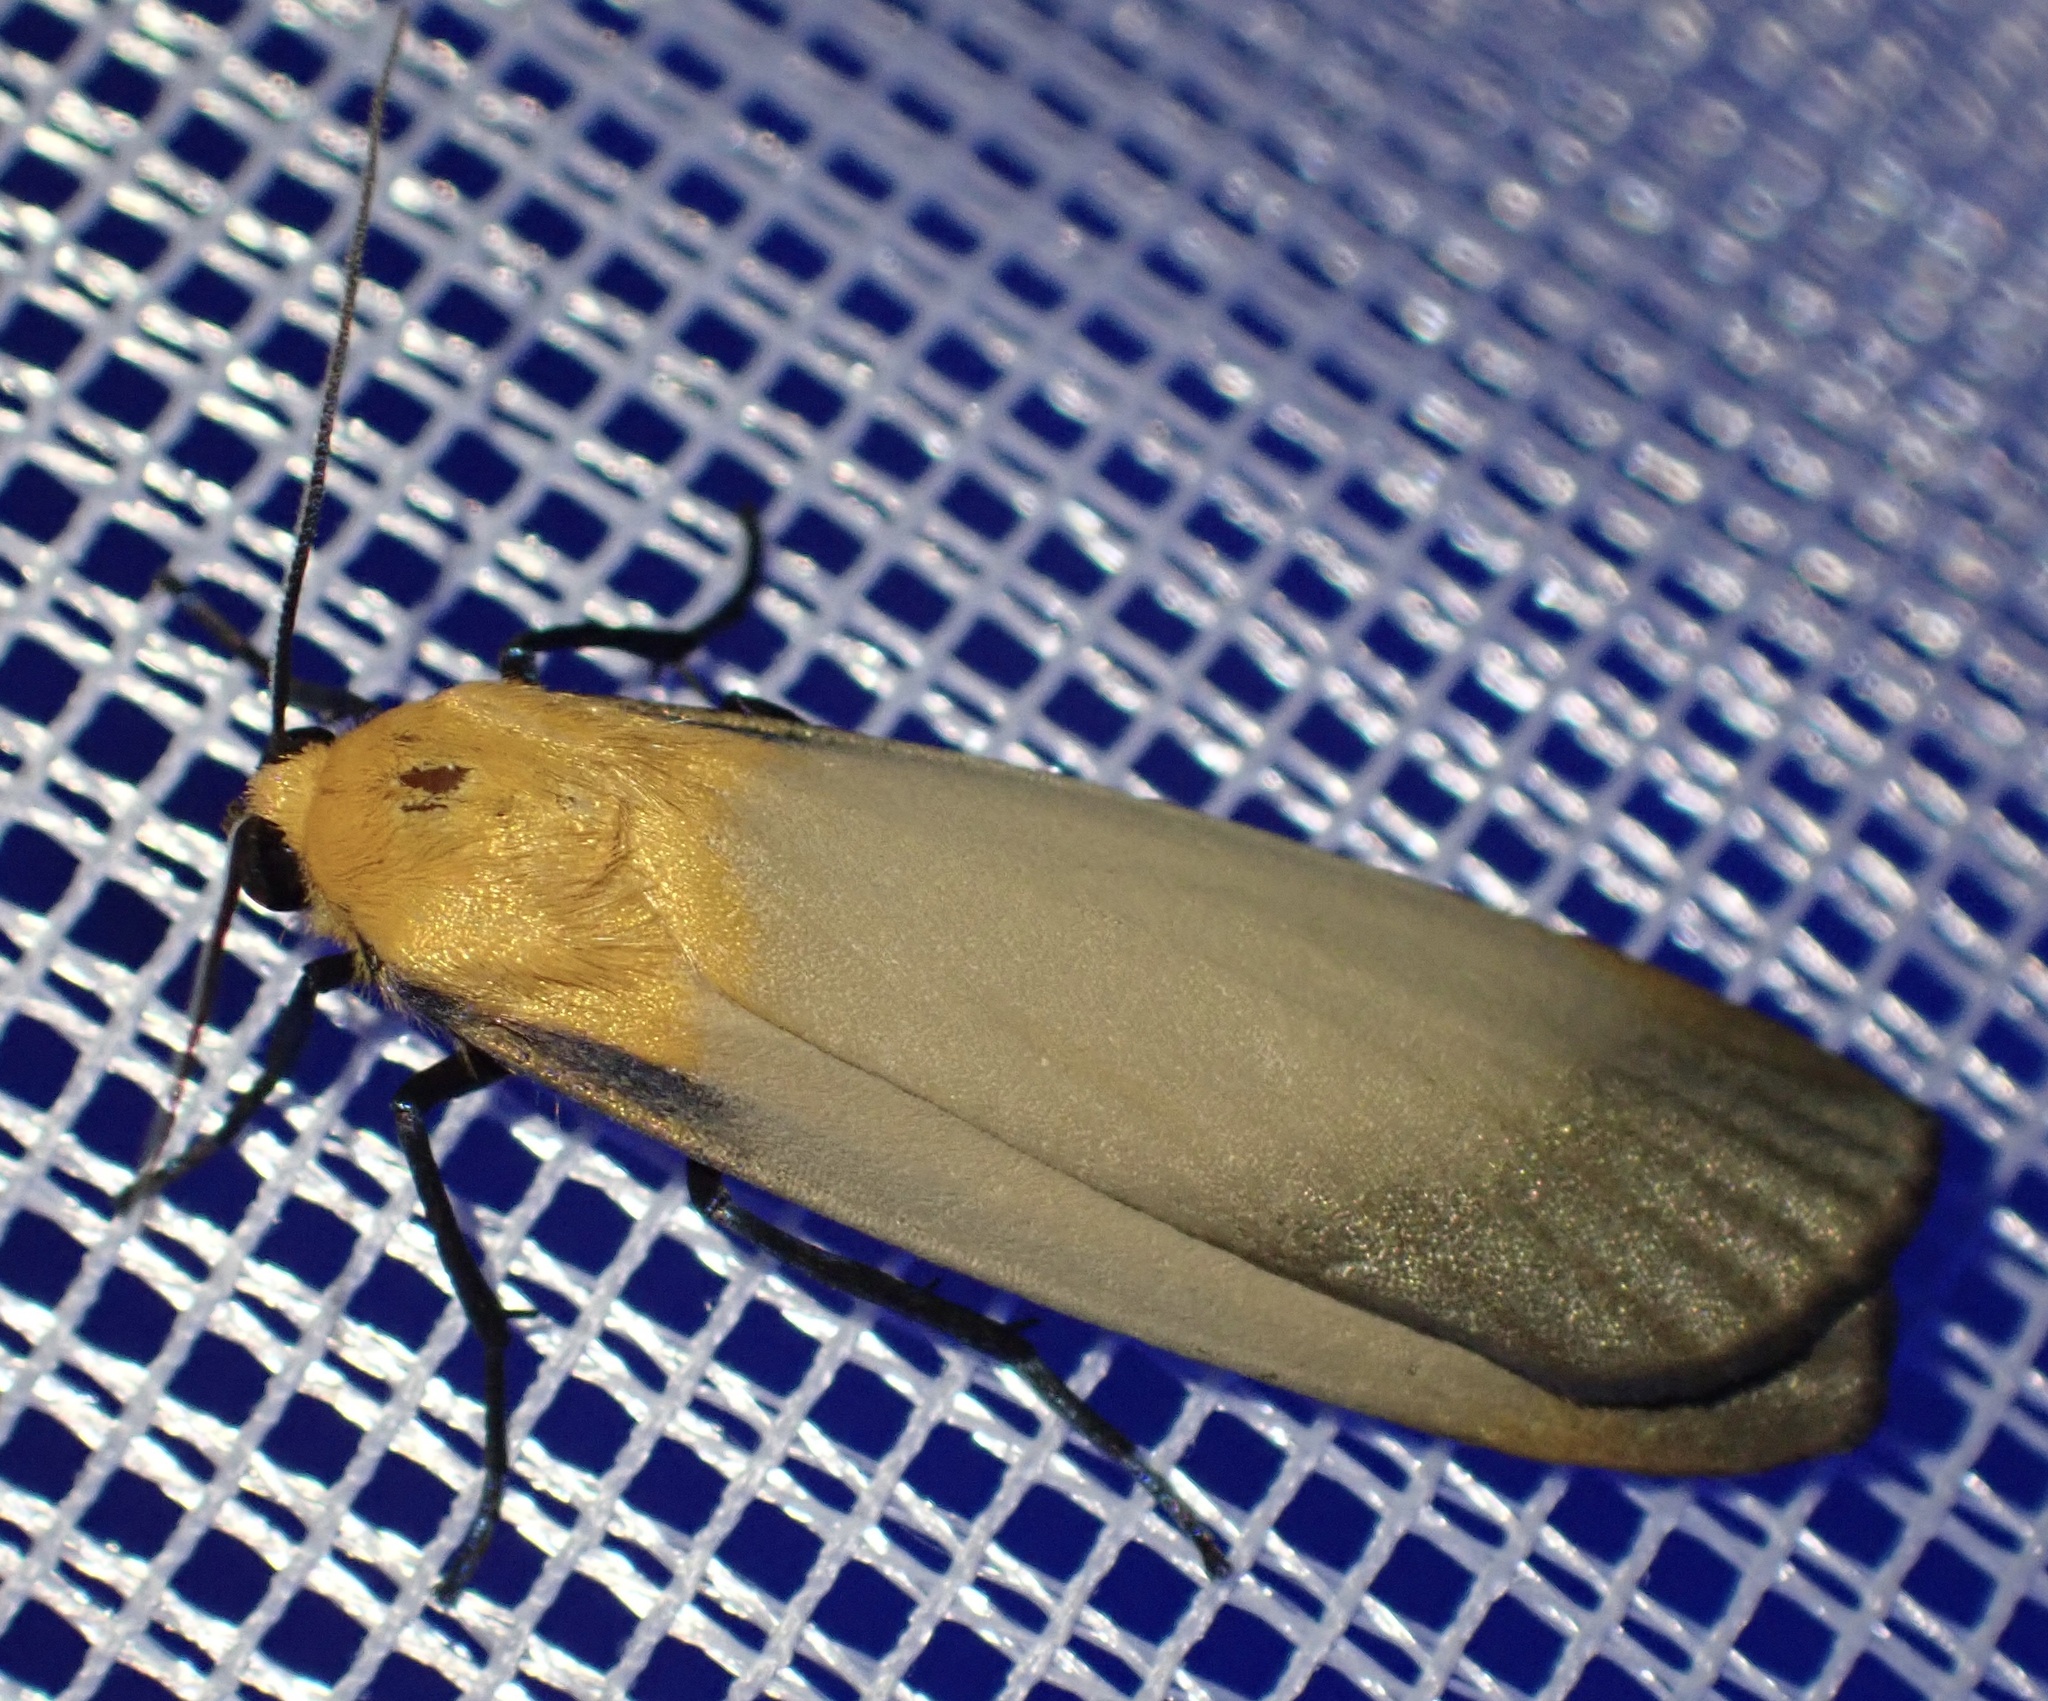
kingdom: Animalia
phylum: Arthropoda
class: Insecta
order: Lepidoptera
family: Erebidae
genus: Lithosia
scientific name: Lithosia quadra
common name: Four-spotted footman
